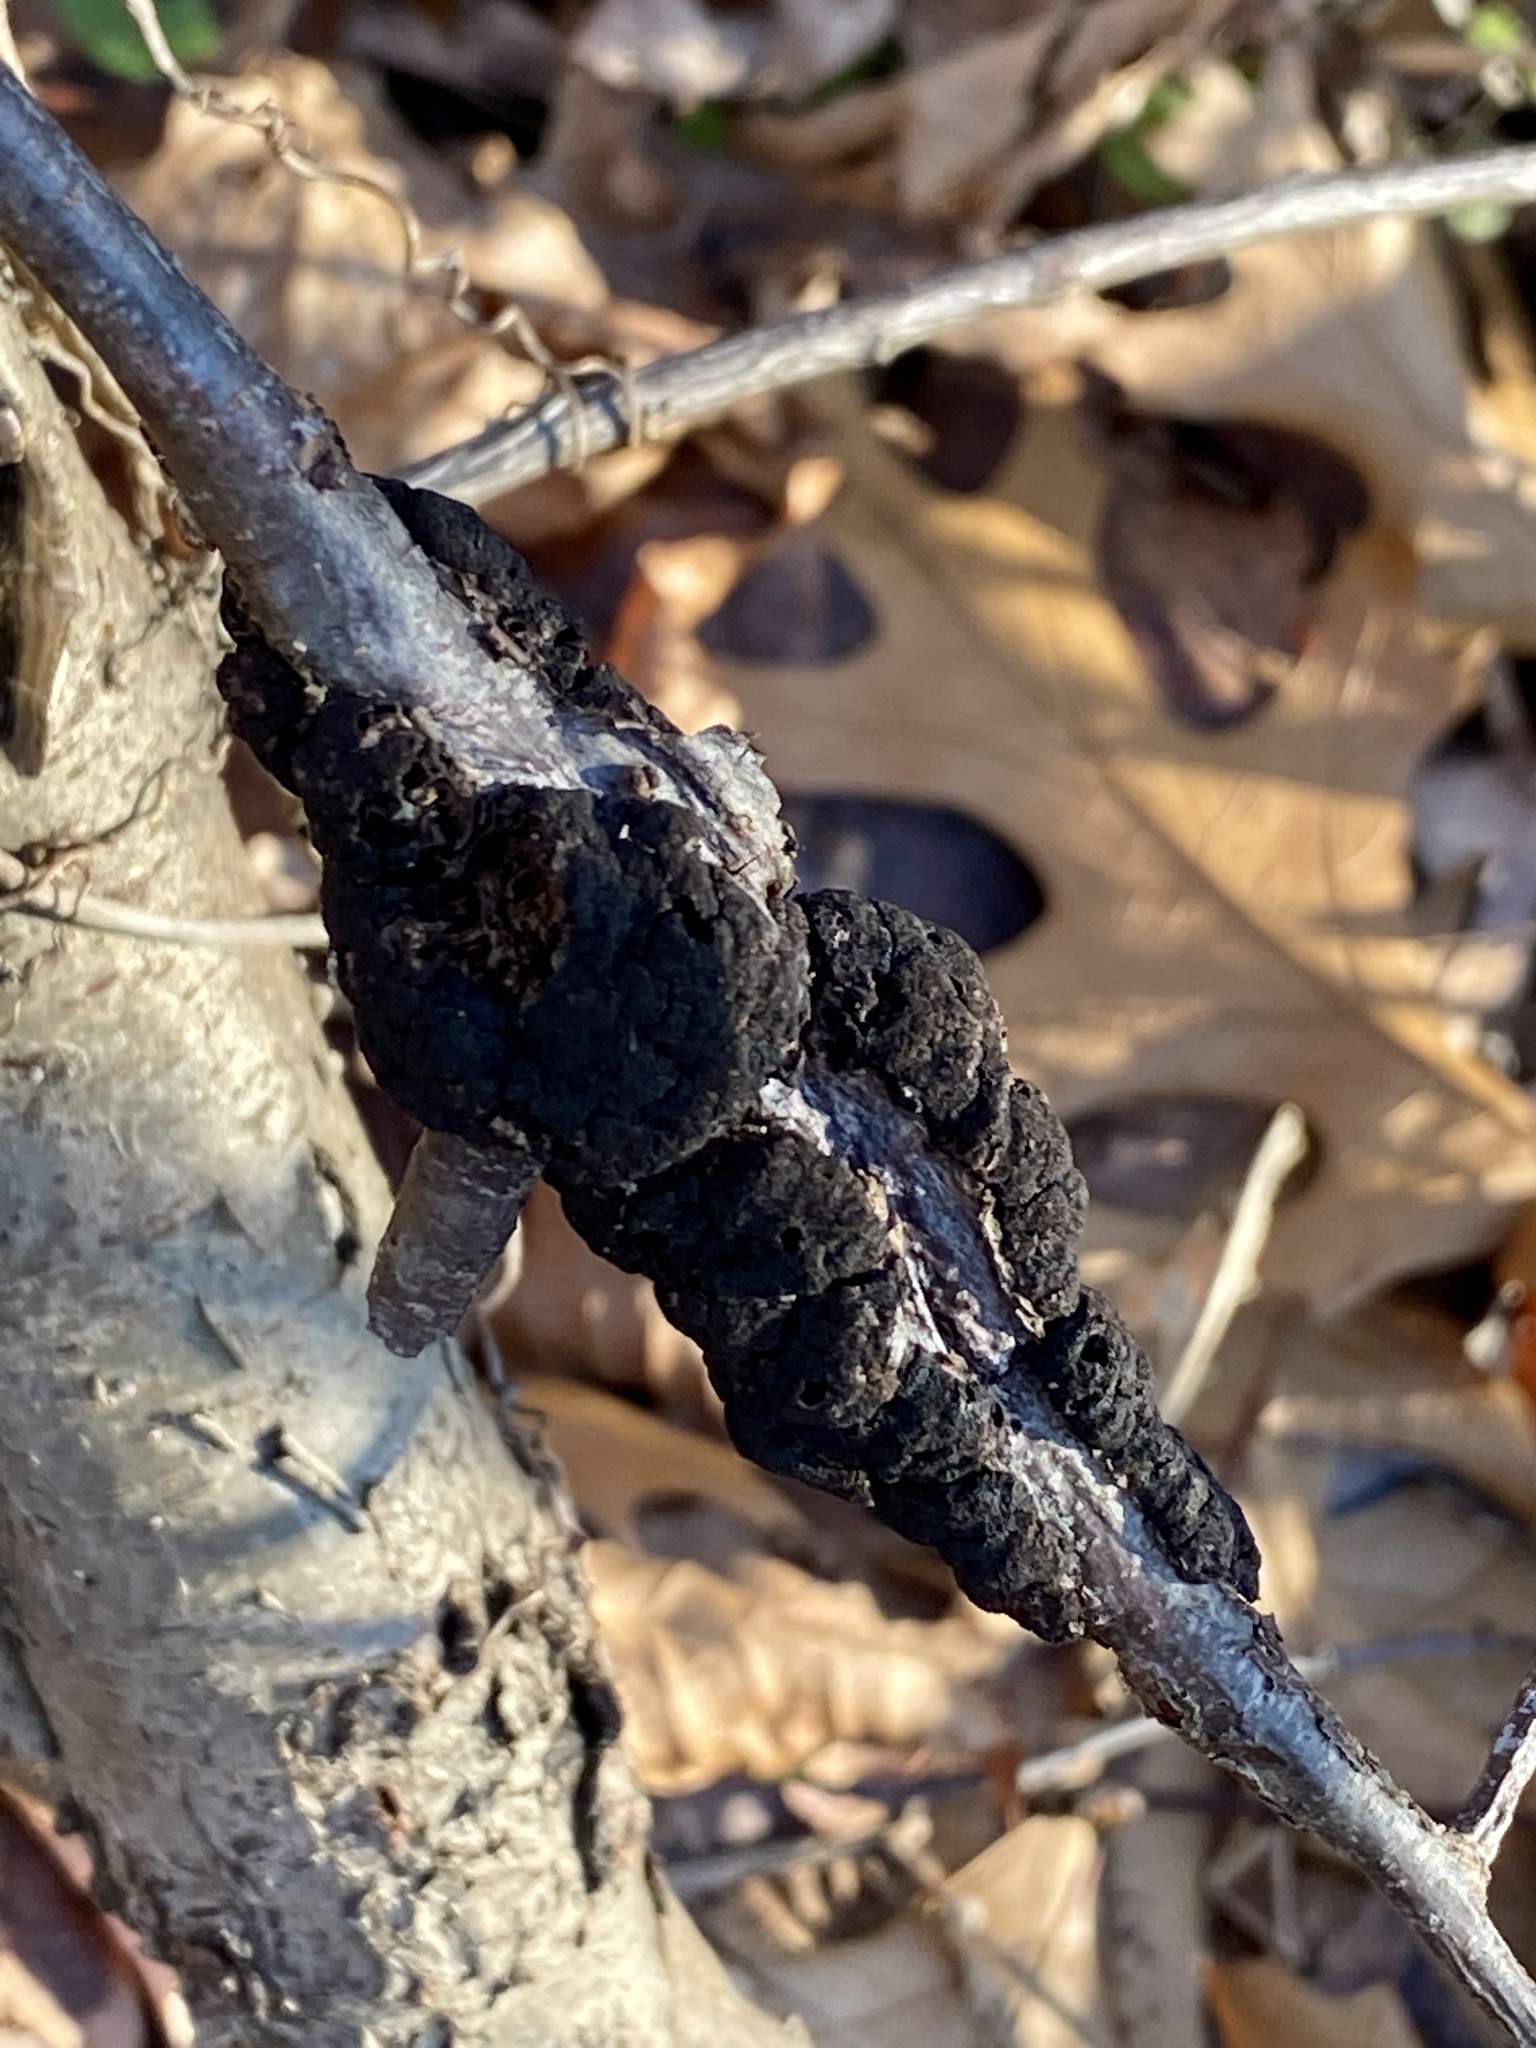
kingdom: Fungi
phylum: Ascomycota
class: Dothideomycetes
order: Venturiales
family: Venturiaceae
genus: Apiosporina
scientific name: Apiosporina morbosa
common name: Black knot
